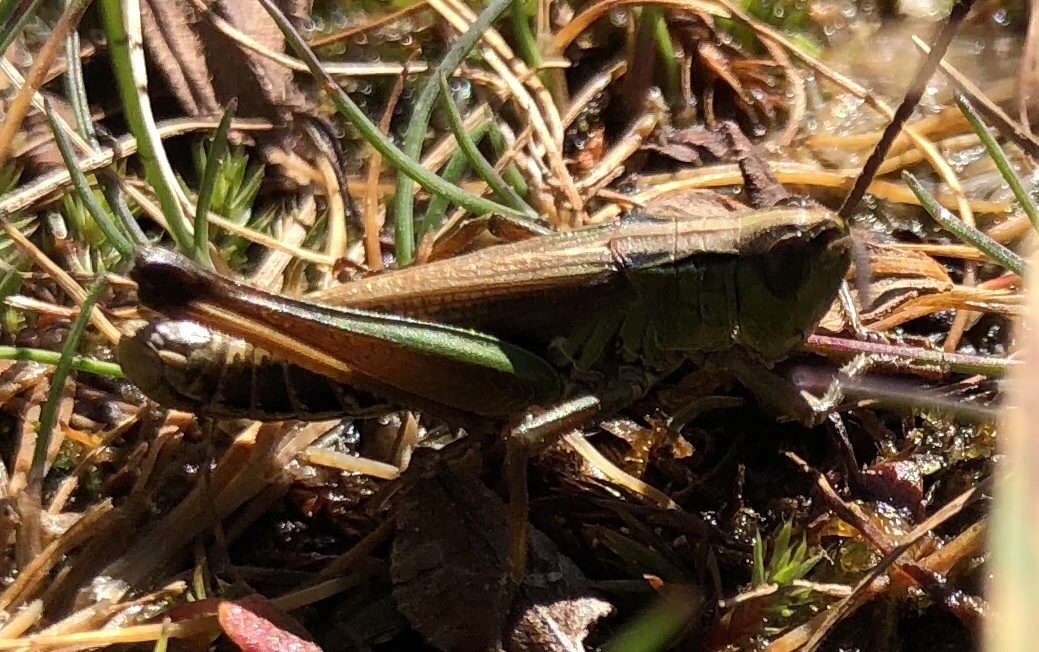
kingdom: Animalia
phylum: Arthropoda
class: Insecta
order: Orthoptera
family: Acrididae
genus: Pseudochorthippus
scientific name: Pseudochorthippus curtipennis
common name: Marsh meadow grasshopper
